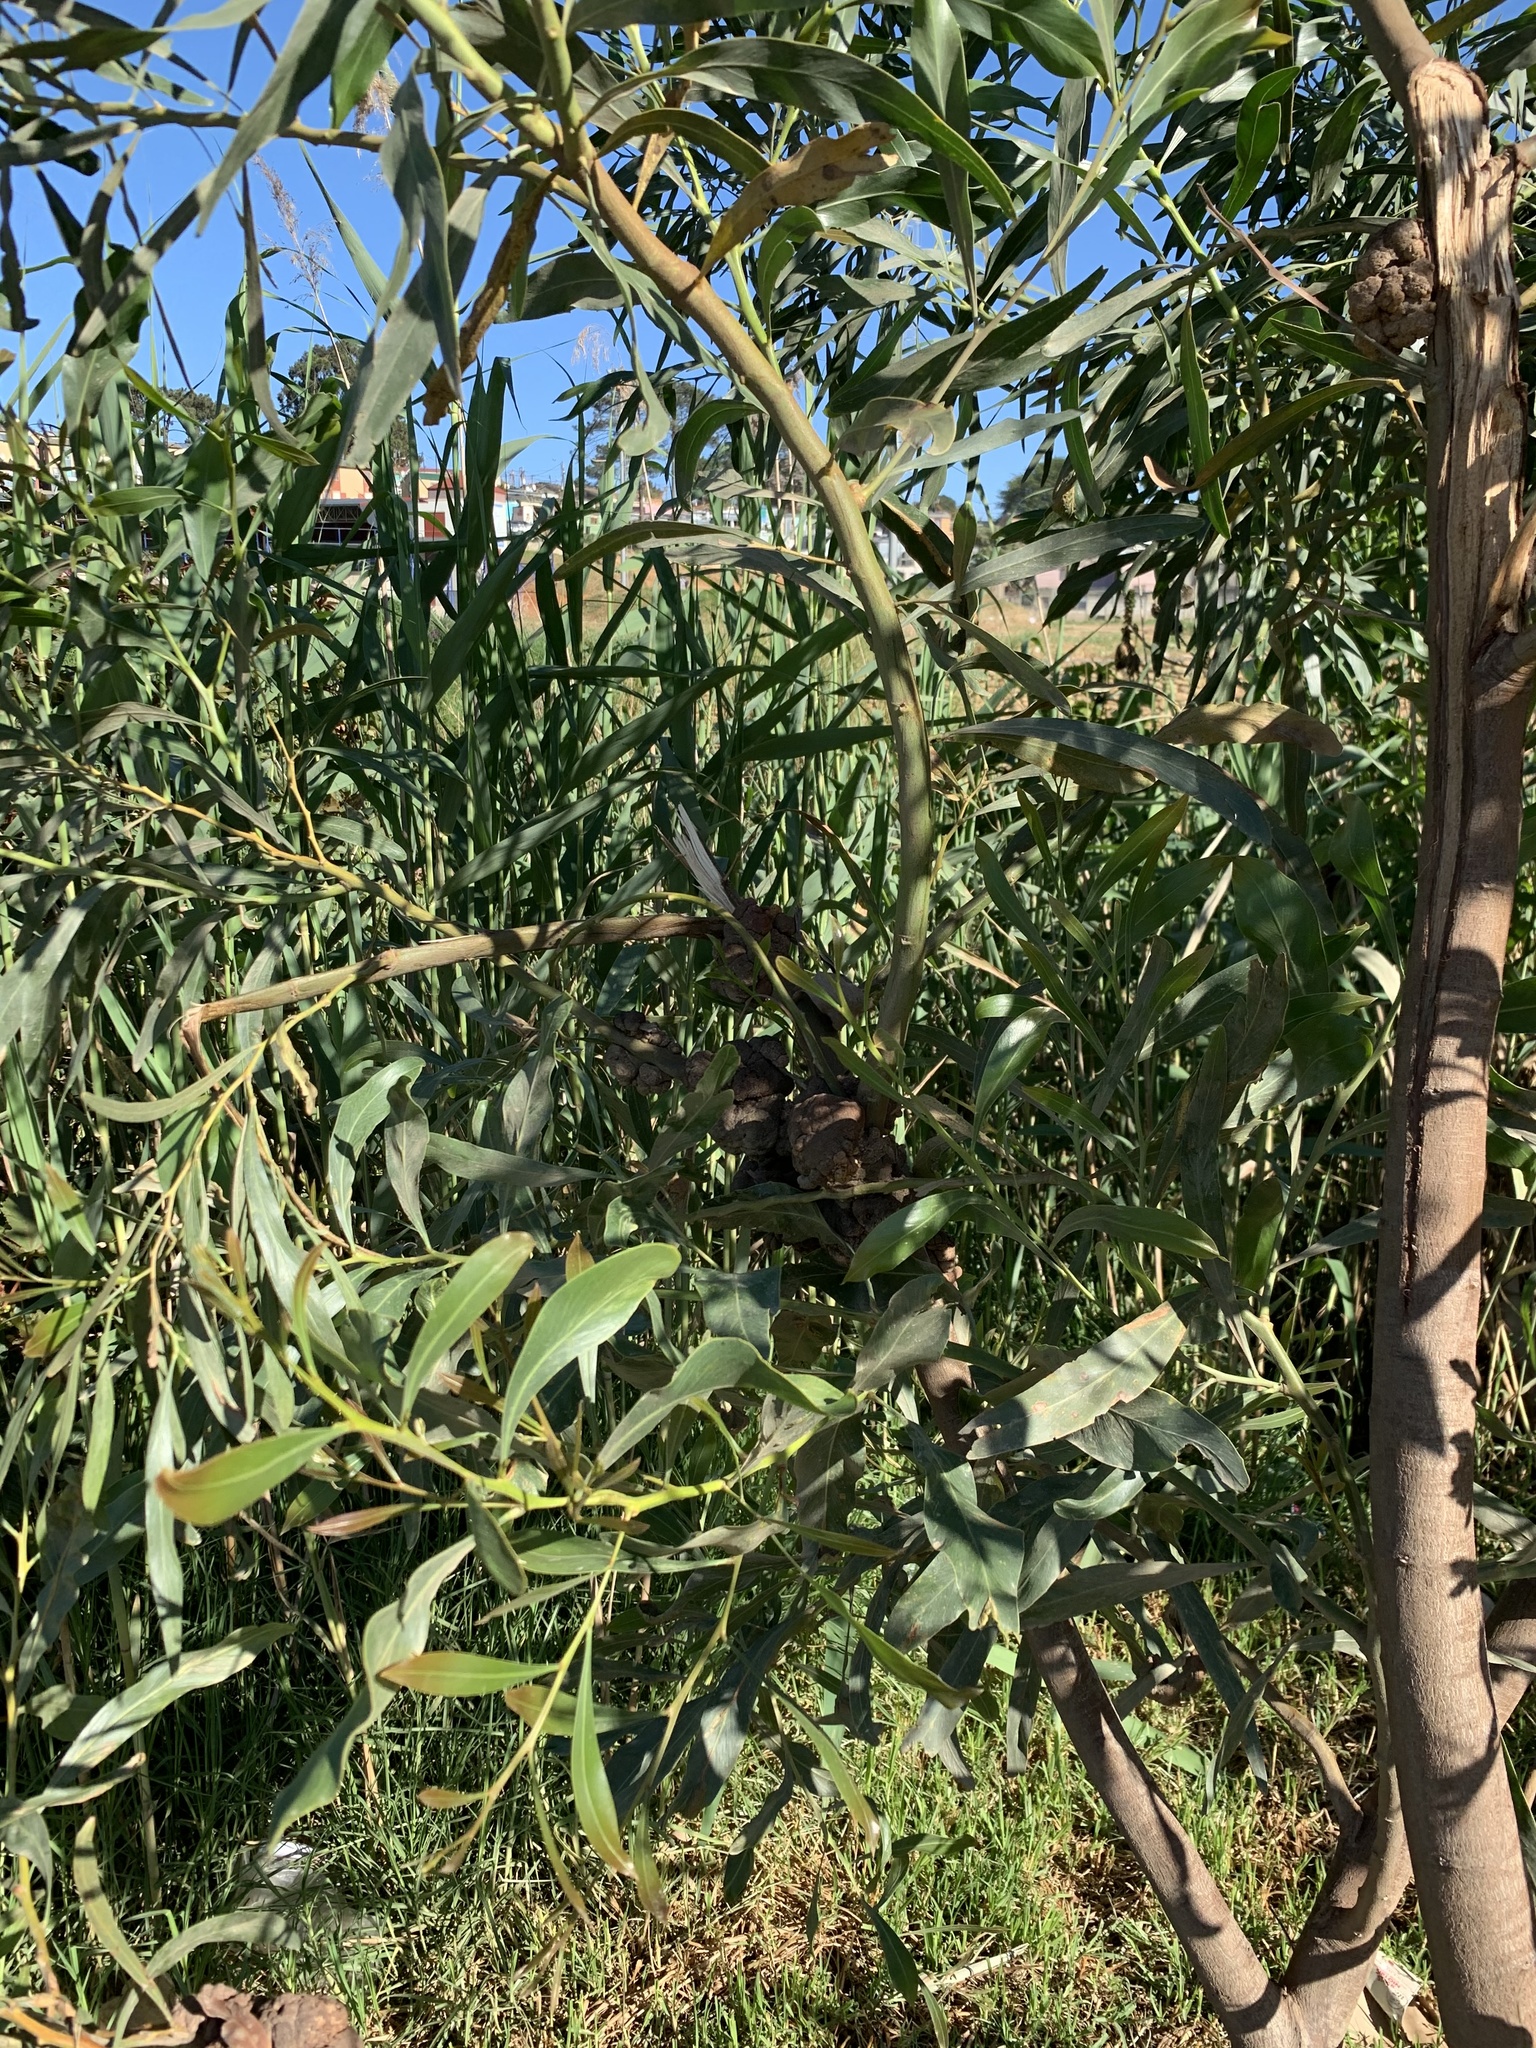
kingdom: Plantae
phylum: Tracheophyta
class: Magnoliopsida
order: Fabales
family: Fabaceae
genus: Acacia
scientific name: Acacia saligna
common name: Orange wattle
